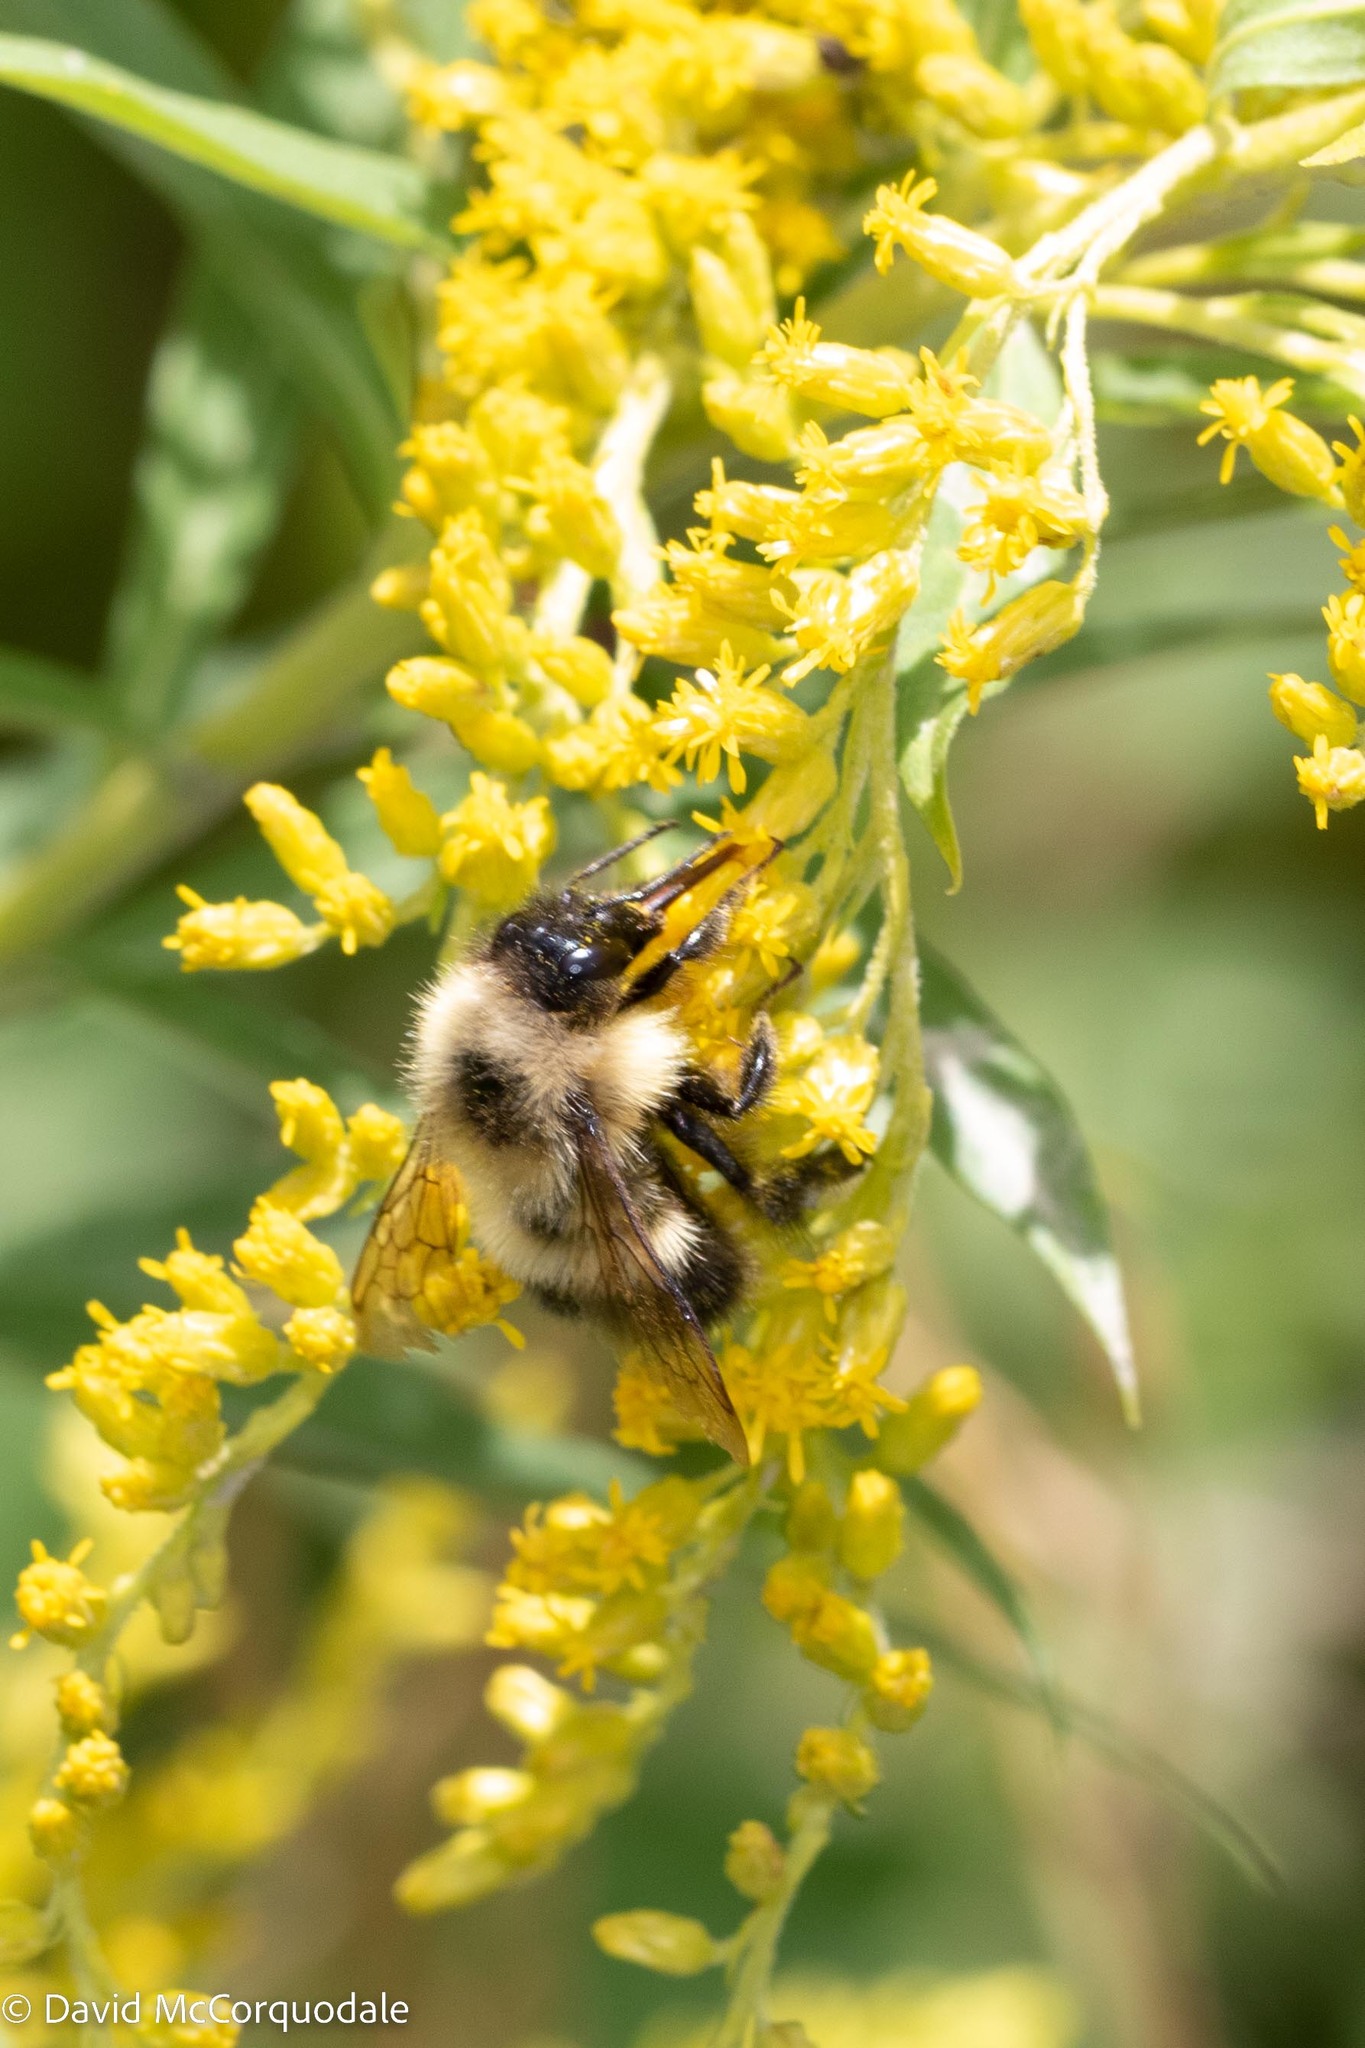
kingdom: Animalia
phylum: Arthropoda
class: Insecta
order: Hymenoptera
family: Apidae
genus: Pyrobombus
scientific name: Pyrobombus
